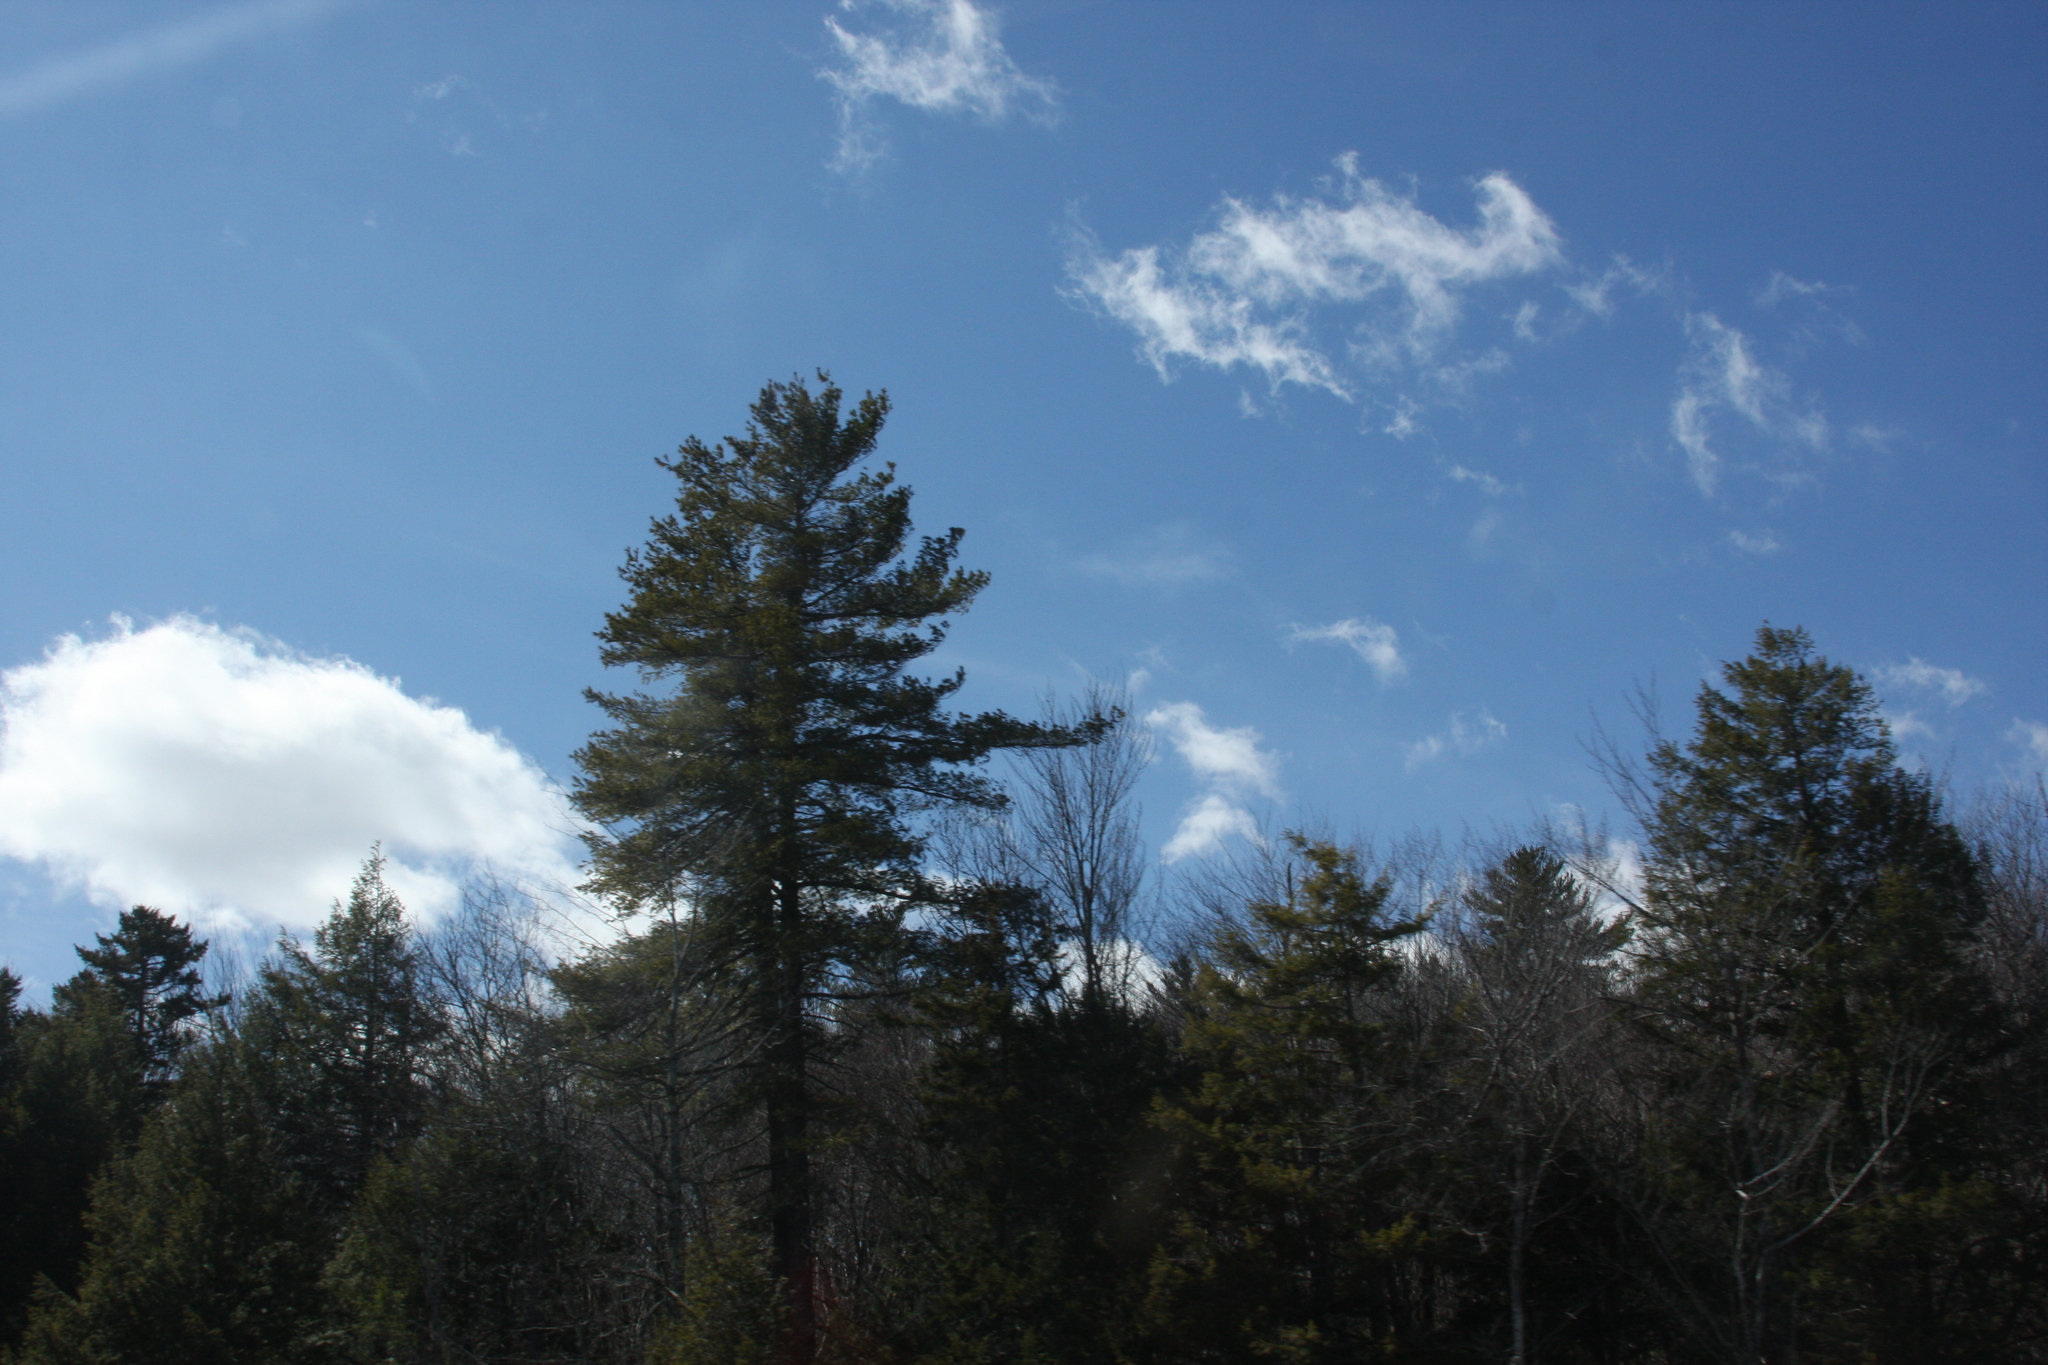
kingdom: Plantae
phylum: Tracheophyta
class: Pinopsida
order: Pinales
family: Pinaceae
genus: Pinus
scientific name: Pinus strobus
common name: Weymouth pine
